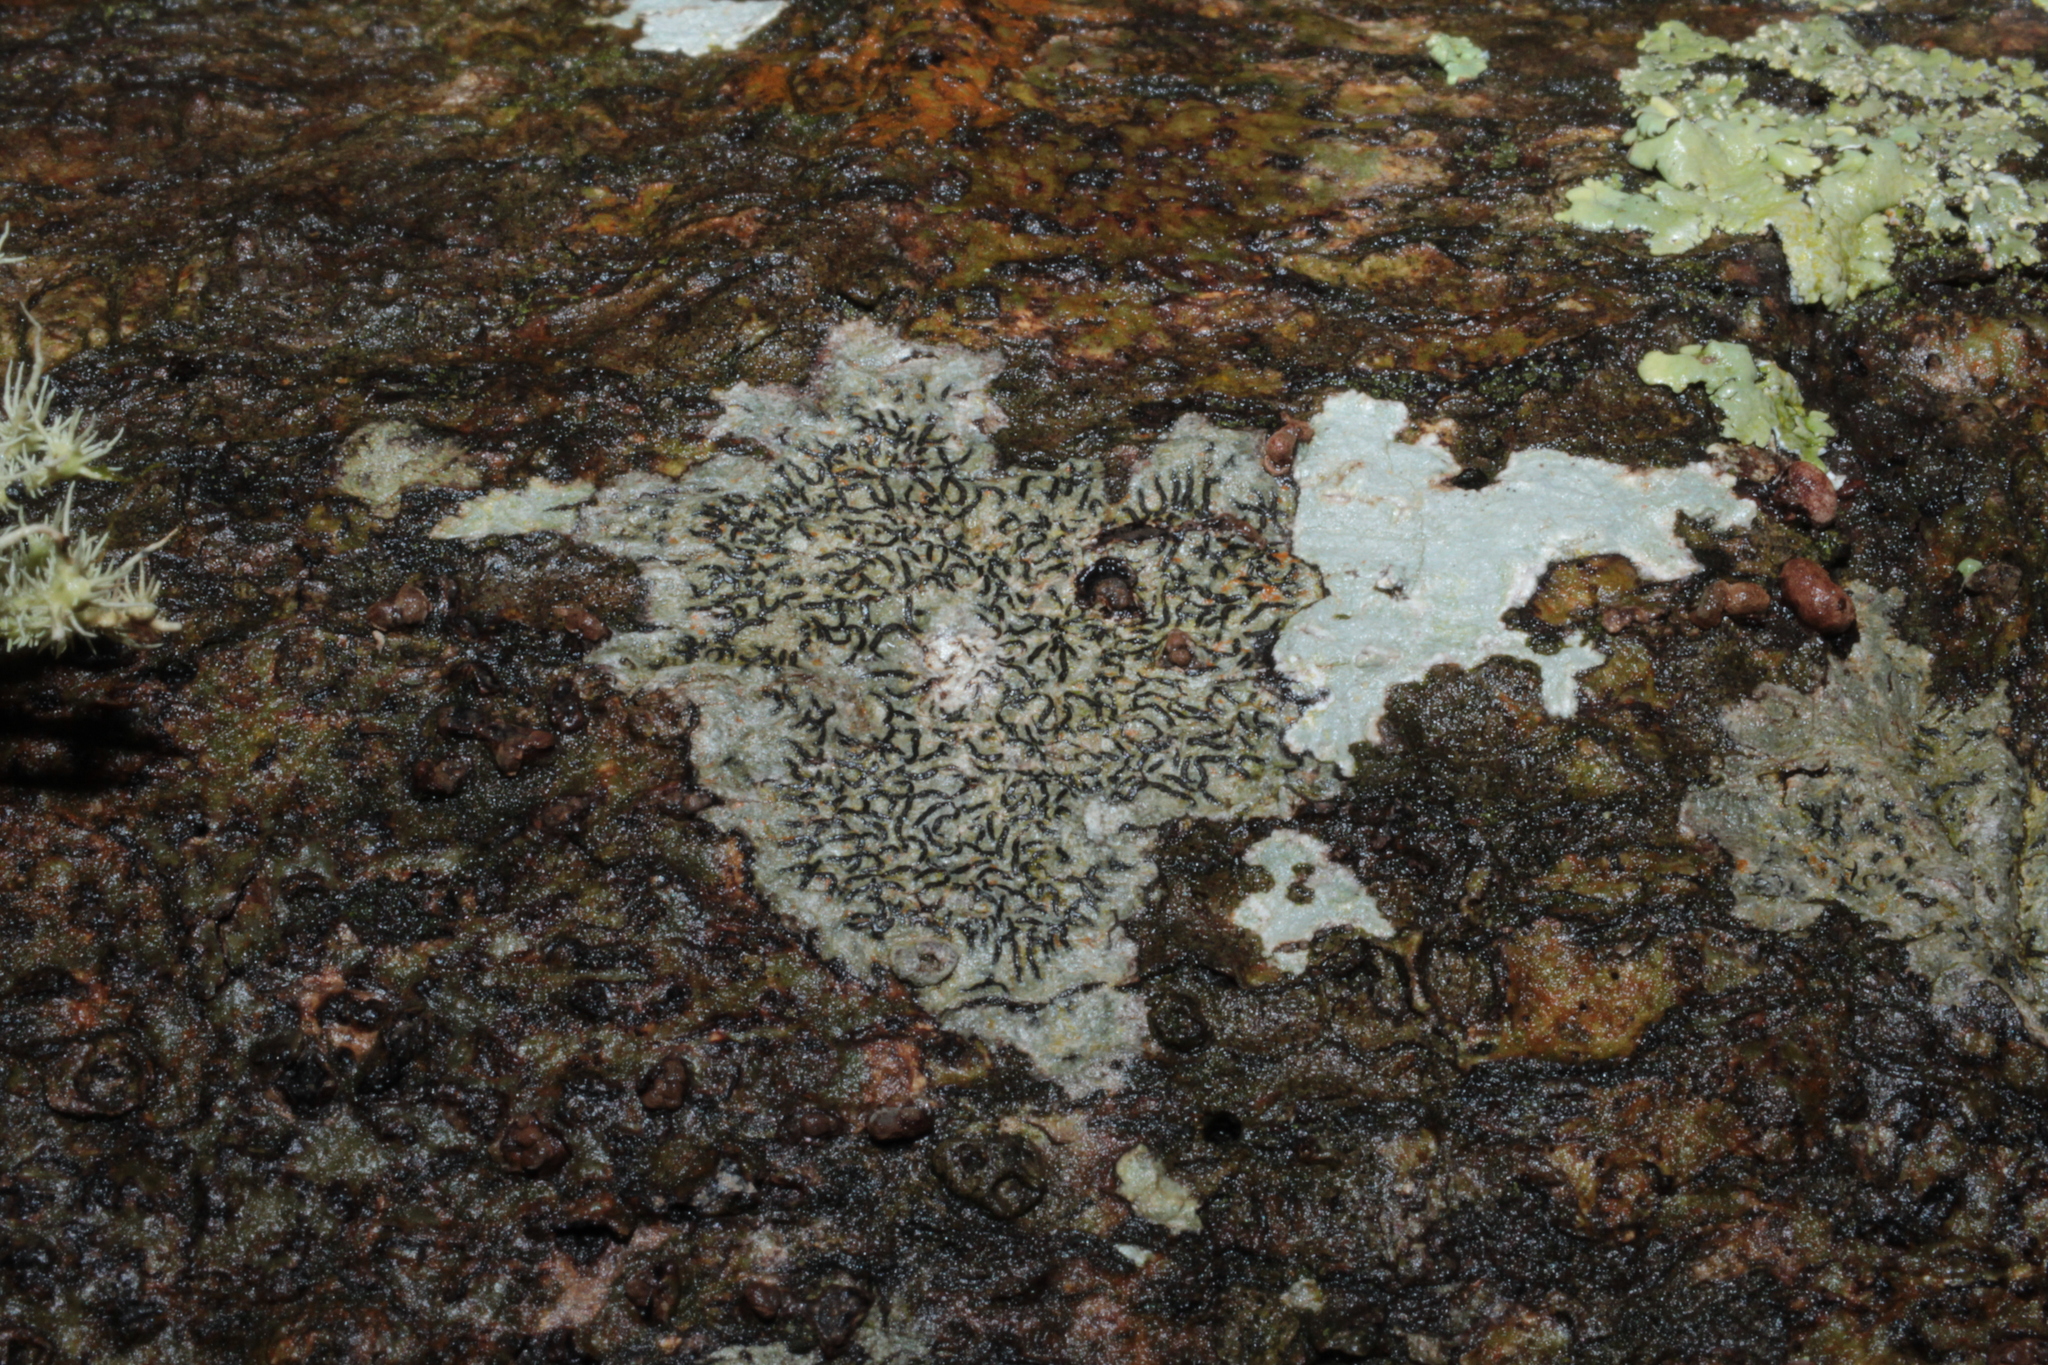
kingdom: Fungi
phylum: Ascomycota
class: Lecanoromycetes
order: Ostropales
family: Graphidaceae
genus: Graphis
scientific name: Graphis scripta
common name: Script lichen
